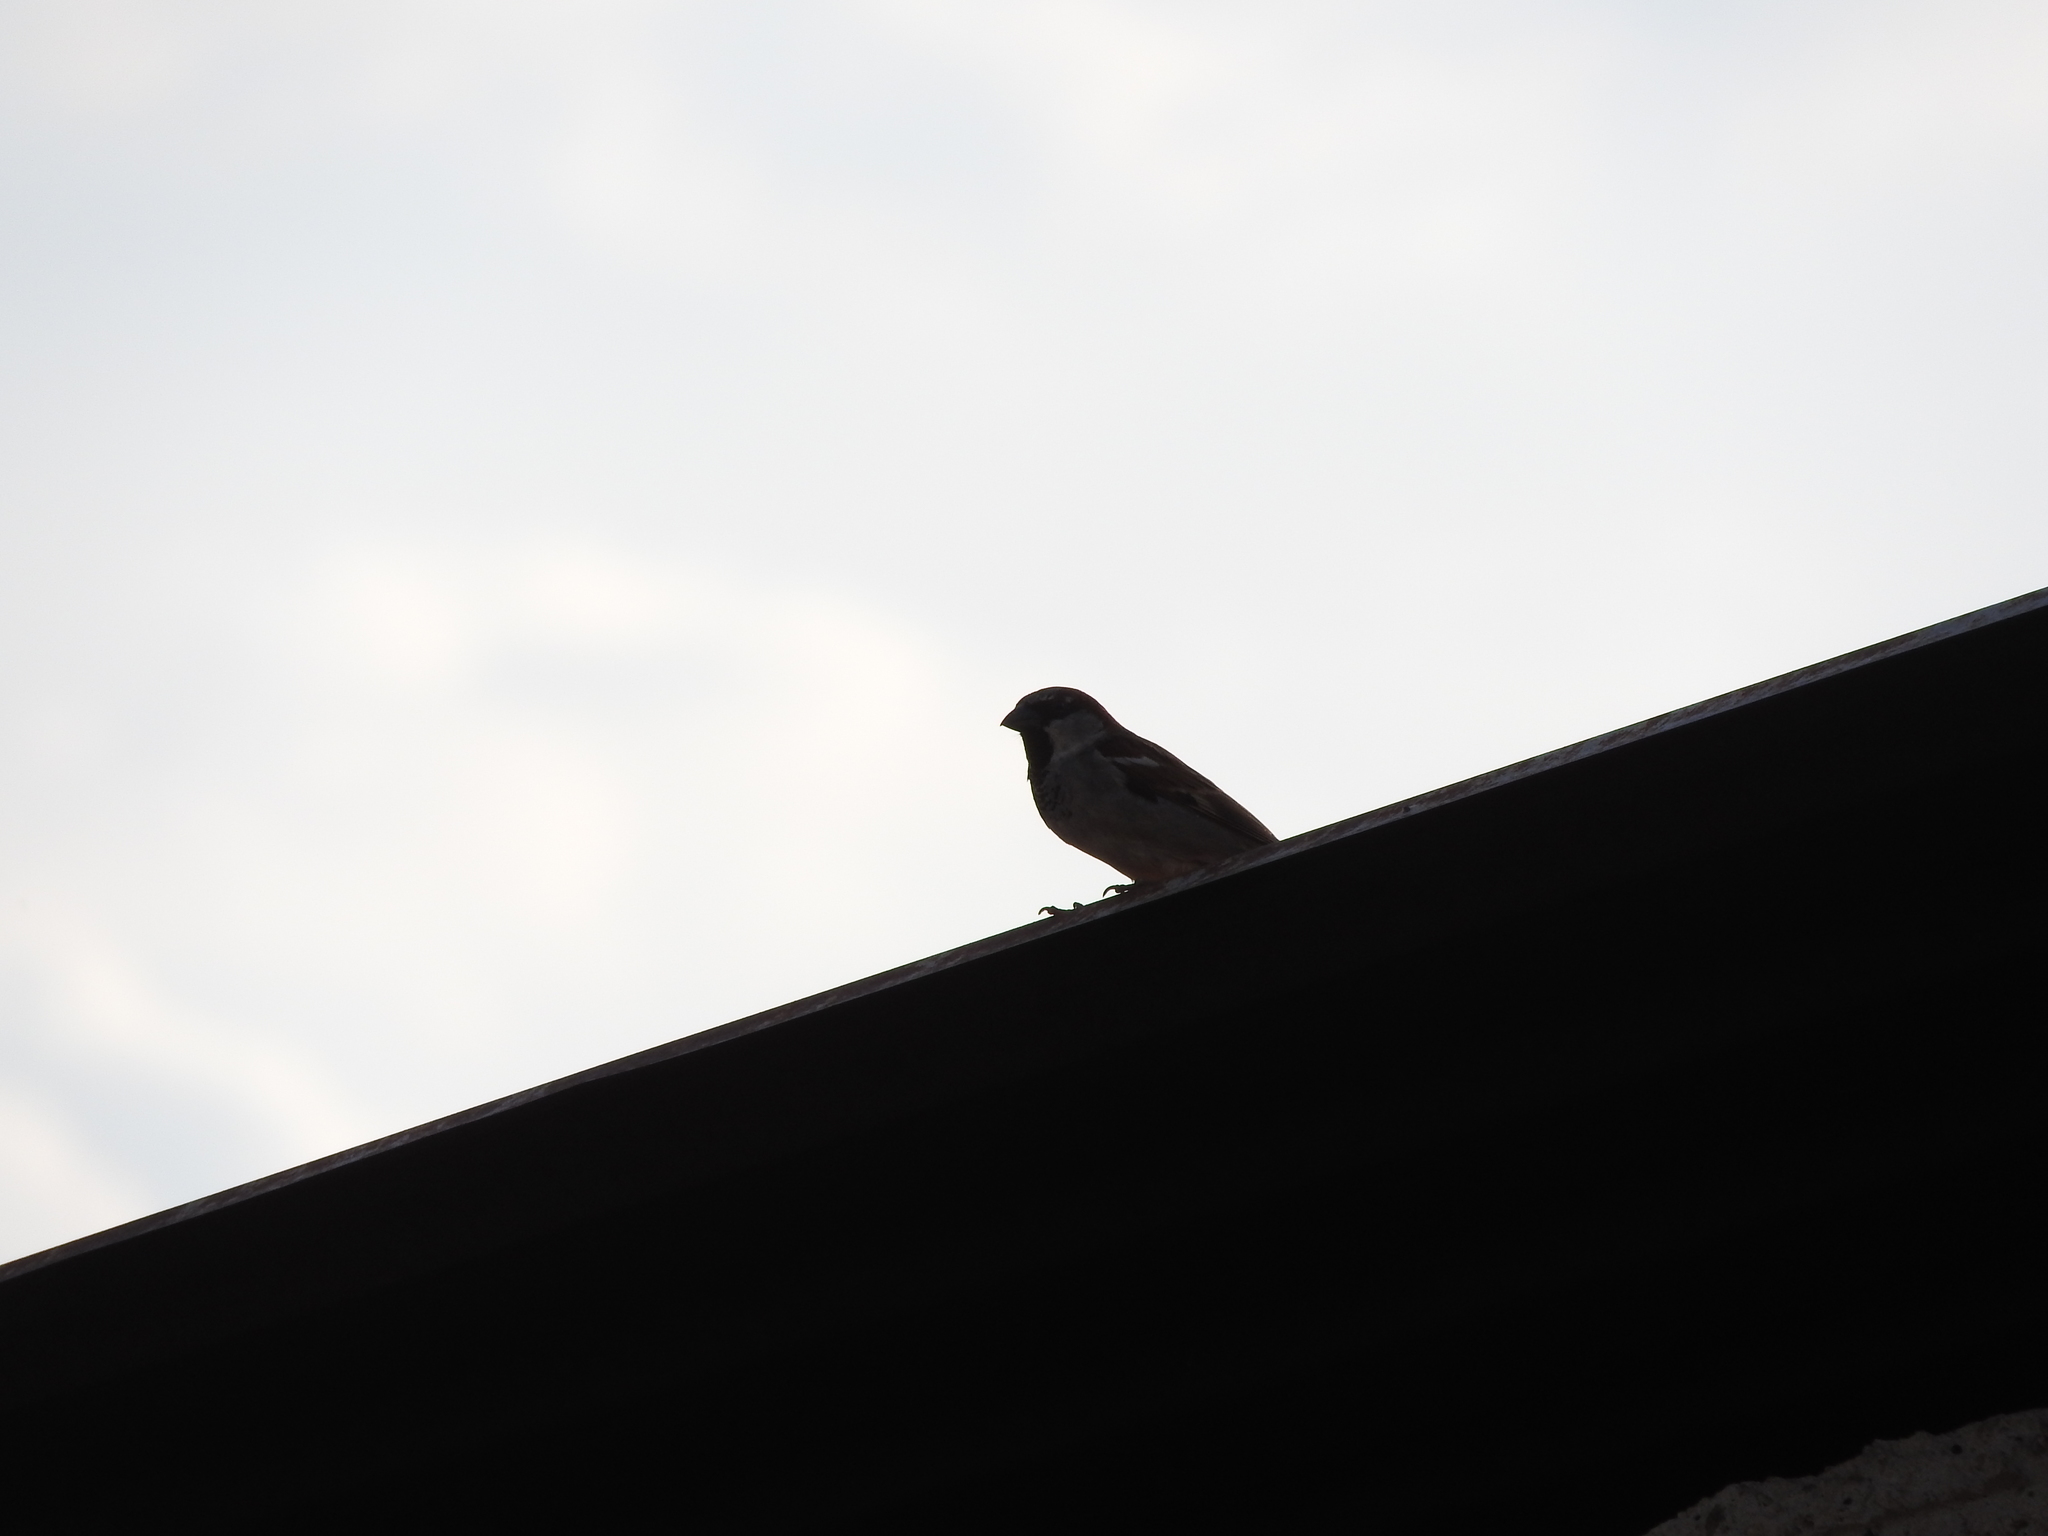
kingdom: Animalia
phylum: Chordata
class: Aves
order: Passeriformes
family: Passeridae
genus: Passer
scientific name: Passer domesticus
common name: House sparrow
